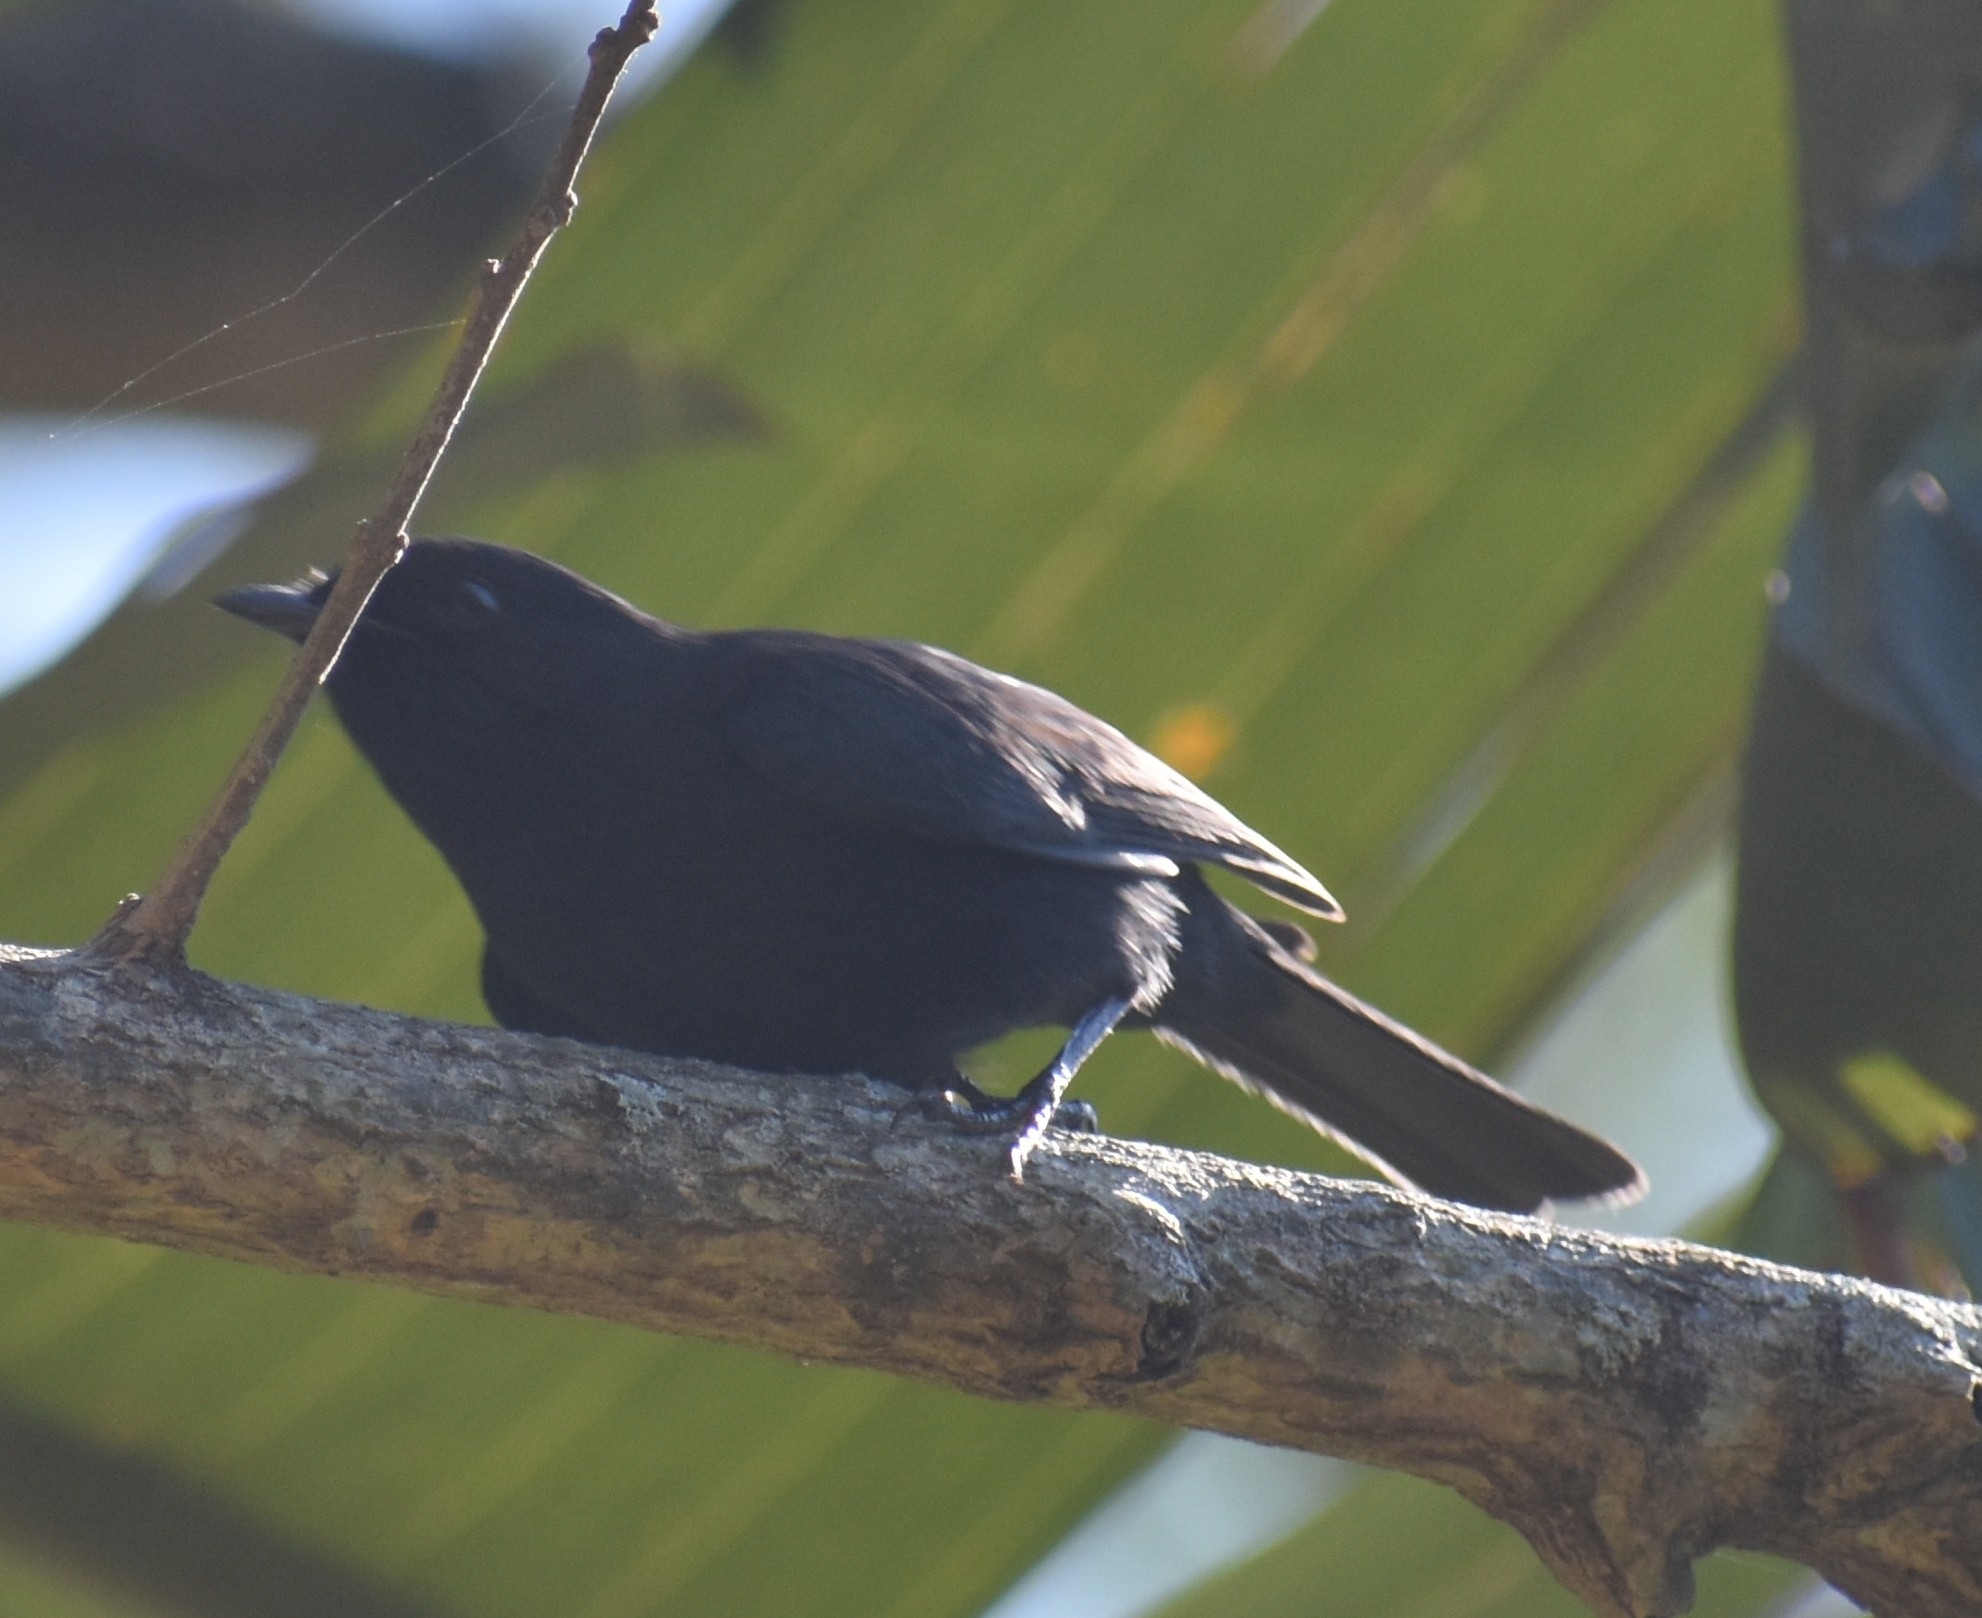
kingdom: Animalia
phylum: Chordata
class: Aves
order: Passeriformes
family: Muscicapidae
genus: Melaenornis
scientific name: Melaenornis pammelaina
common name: Southern black flycatcher
